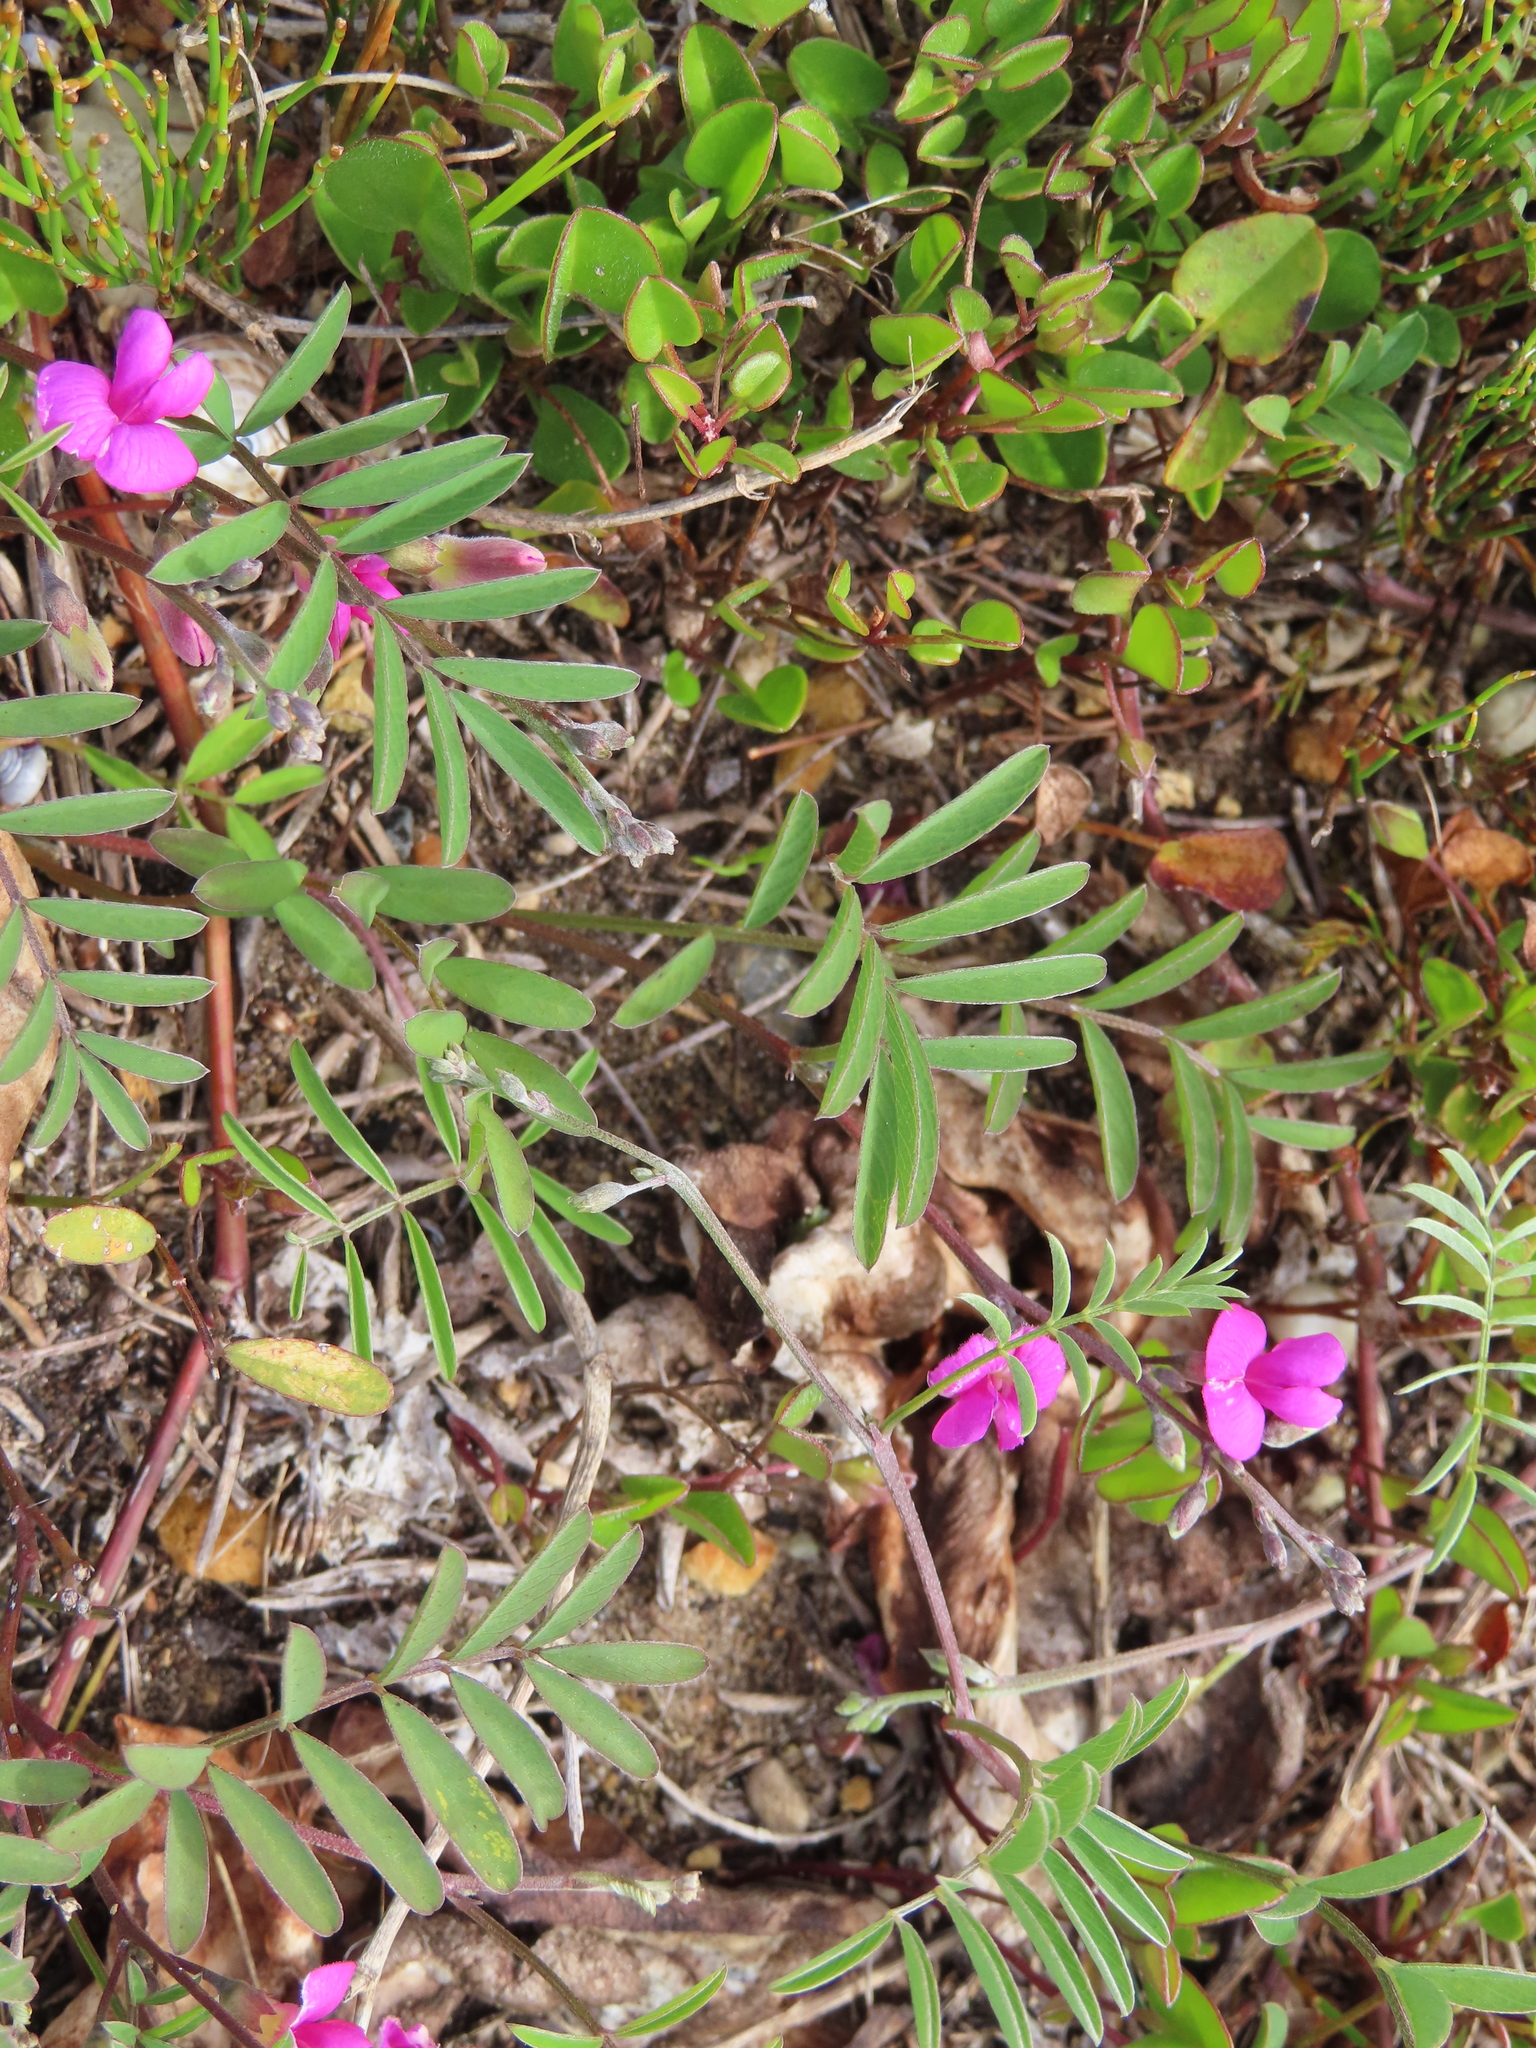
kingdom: Plantae
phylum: Tracheophyta
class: Magnoliopsida
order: Fabales
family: Fabaceae
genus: Tephrosia
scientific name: Tephrosia capensis
